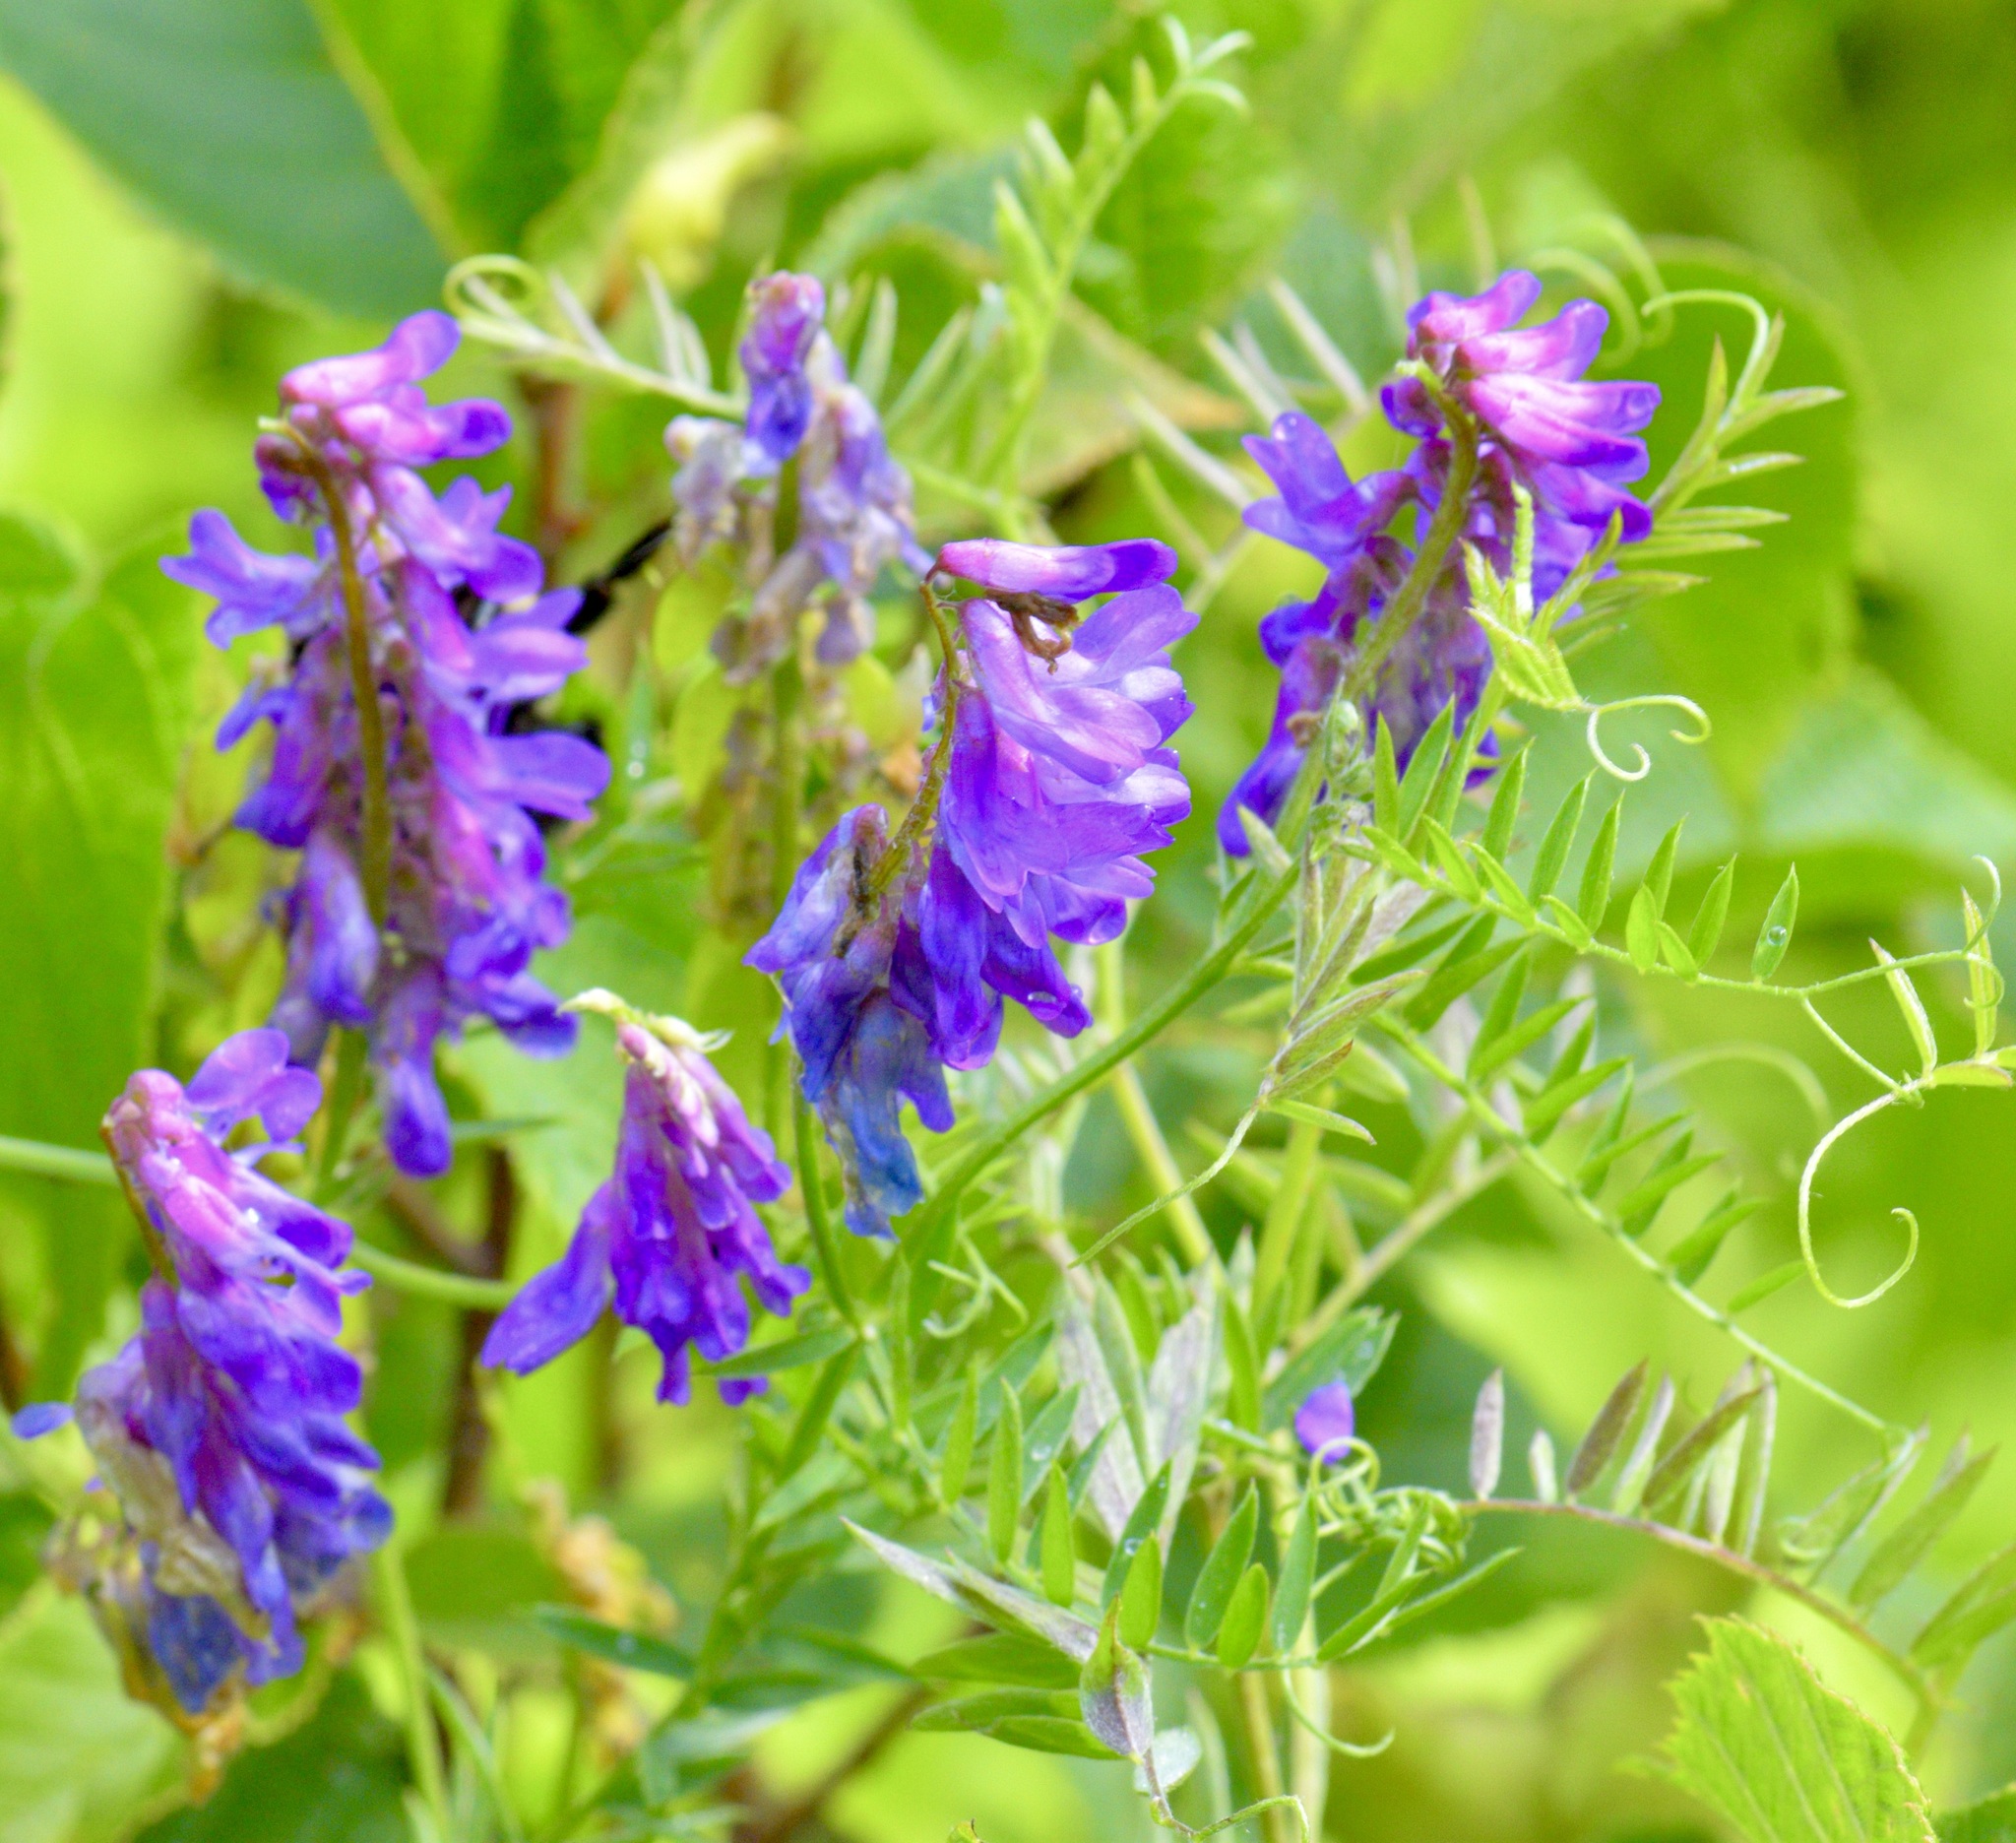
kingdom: Plantae
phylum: Tracheophyta
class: Magnoliopsida
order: Fabales
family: Fabaceae
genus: Vicia
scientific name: Vicia cracca
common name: Bird vetch
